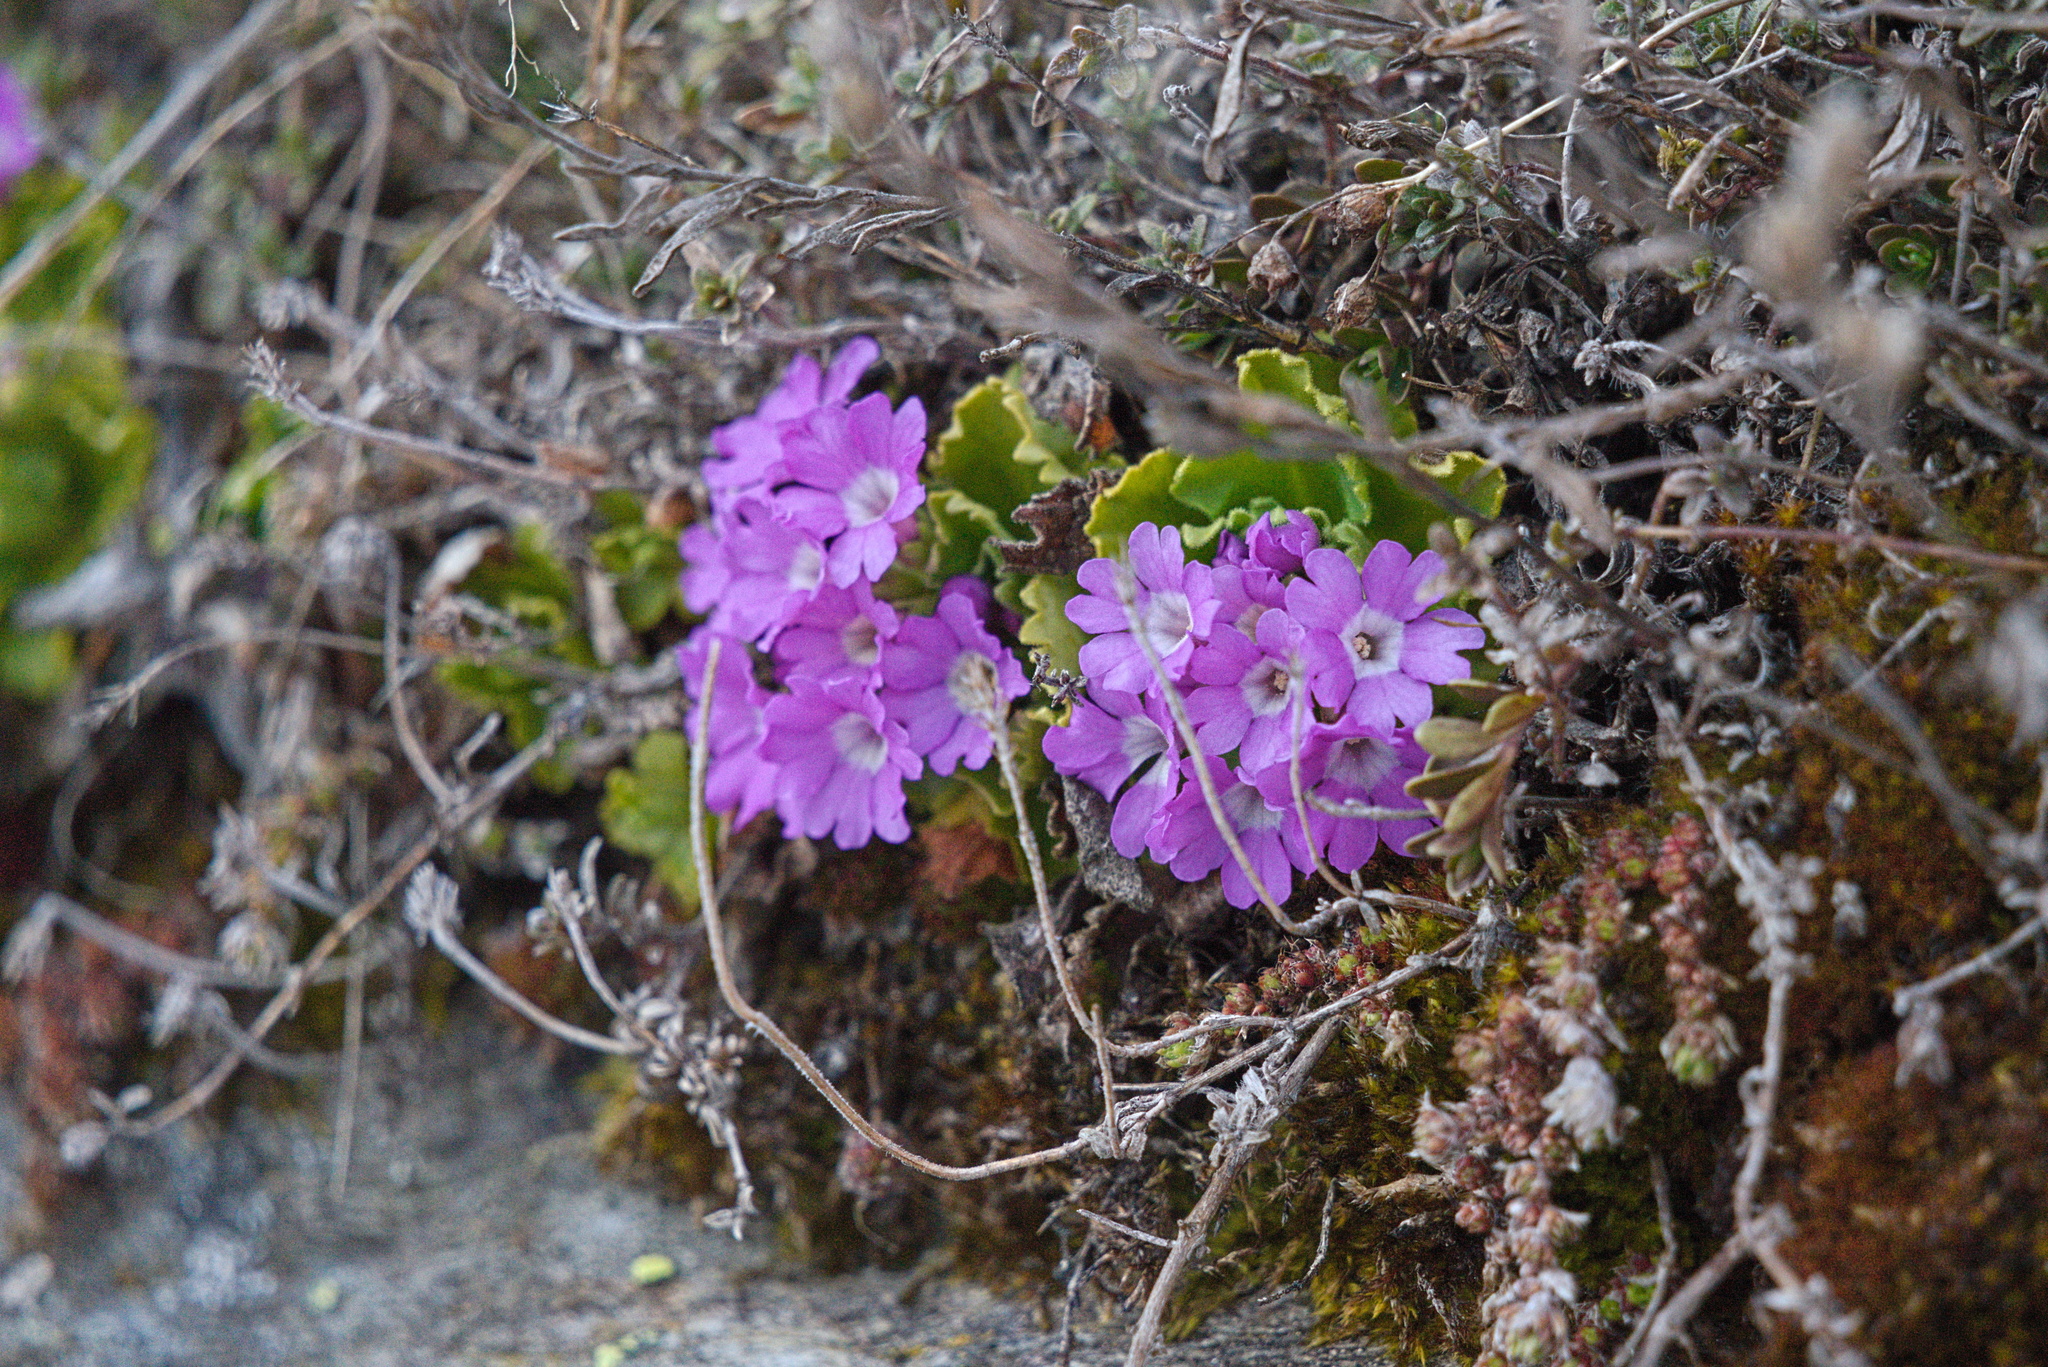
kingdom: Plantae
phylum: Tracheophyta
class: Magnoliopsida
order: Ericales
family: Primulaceae
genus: Primula
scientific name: Primula hirsuta
